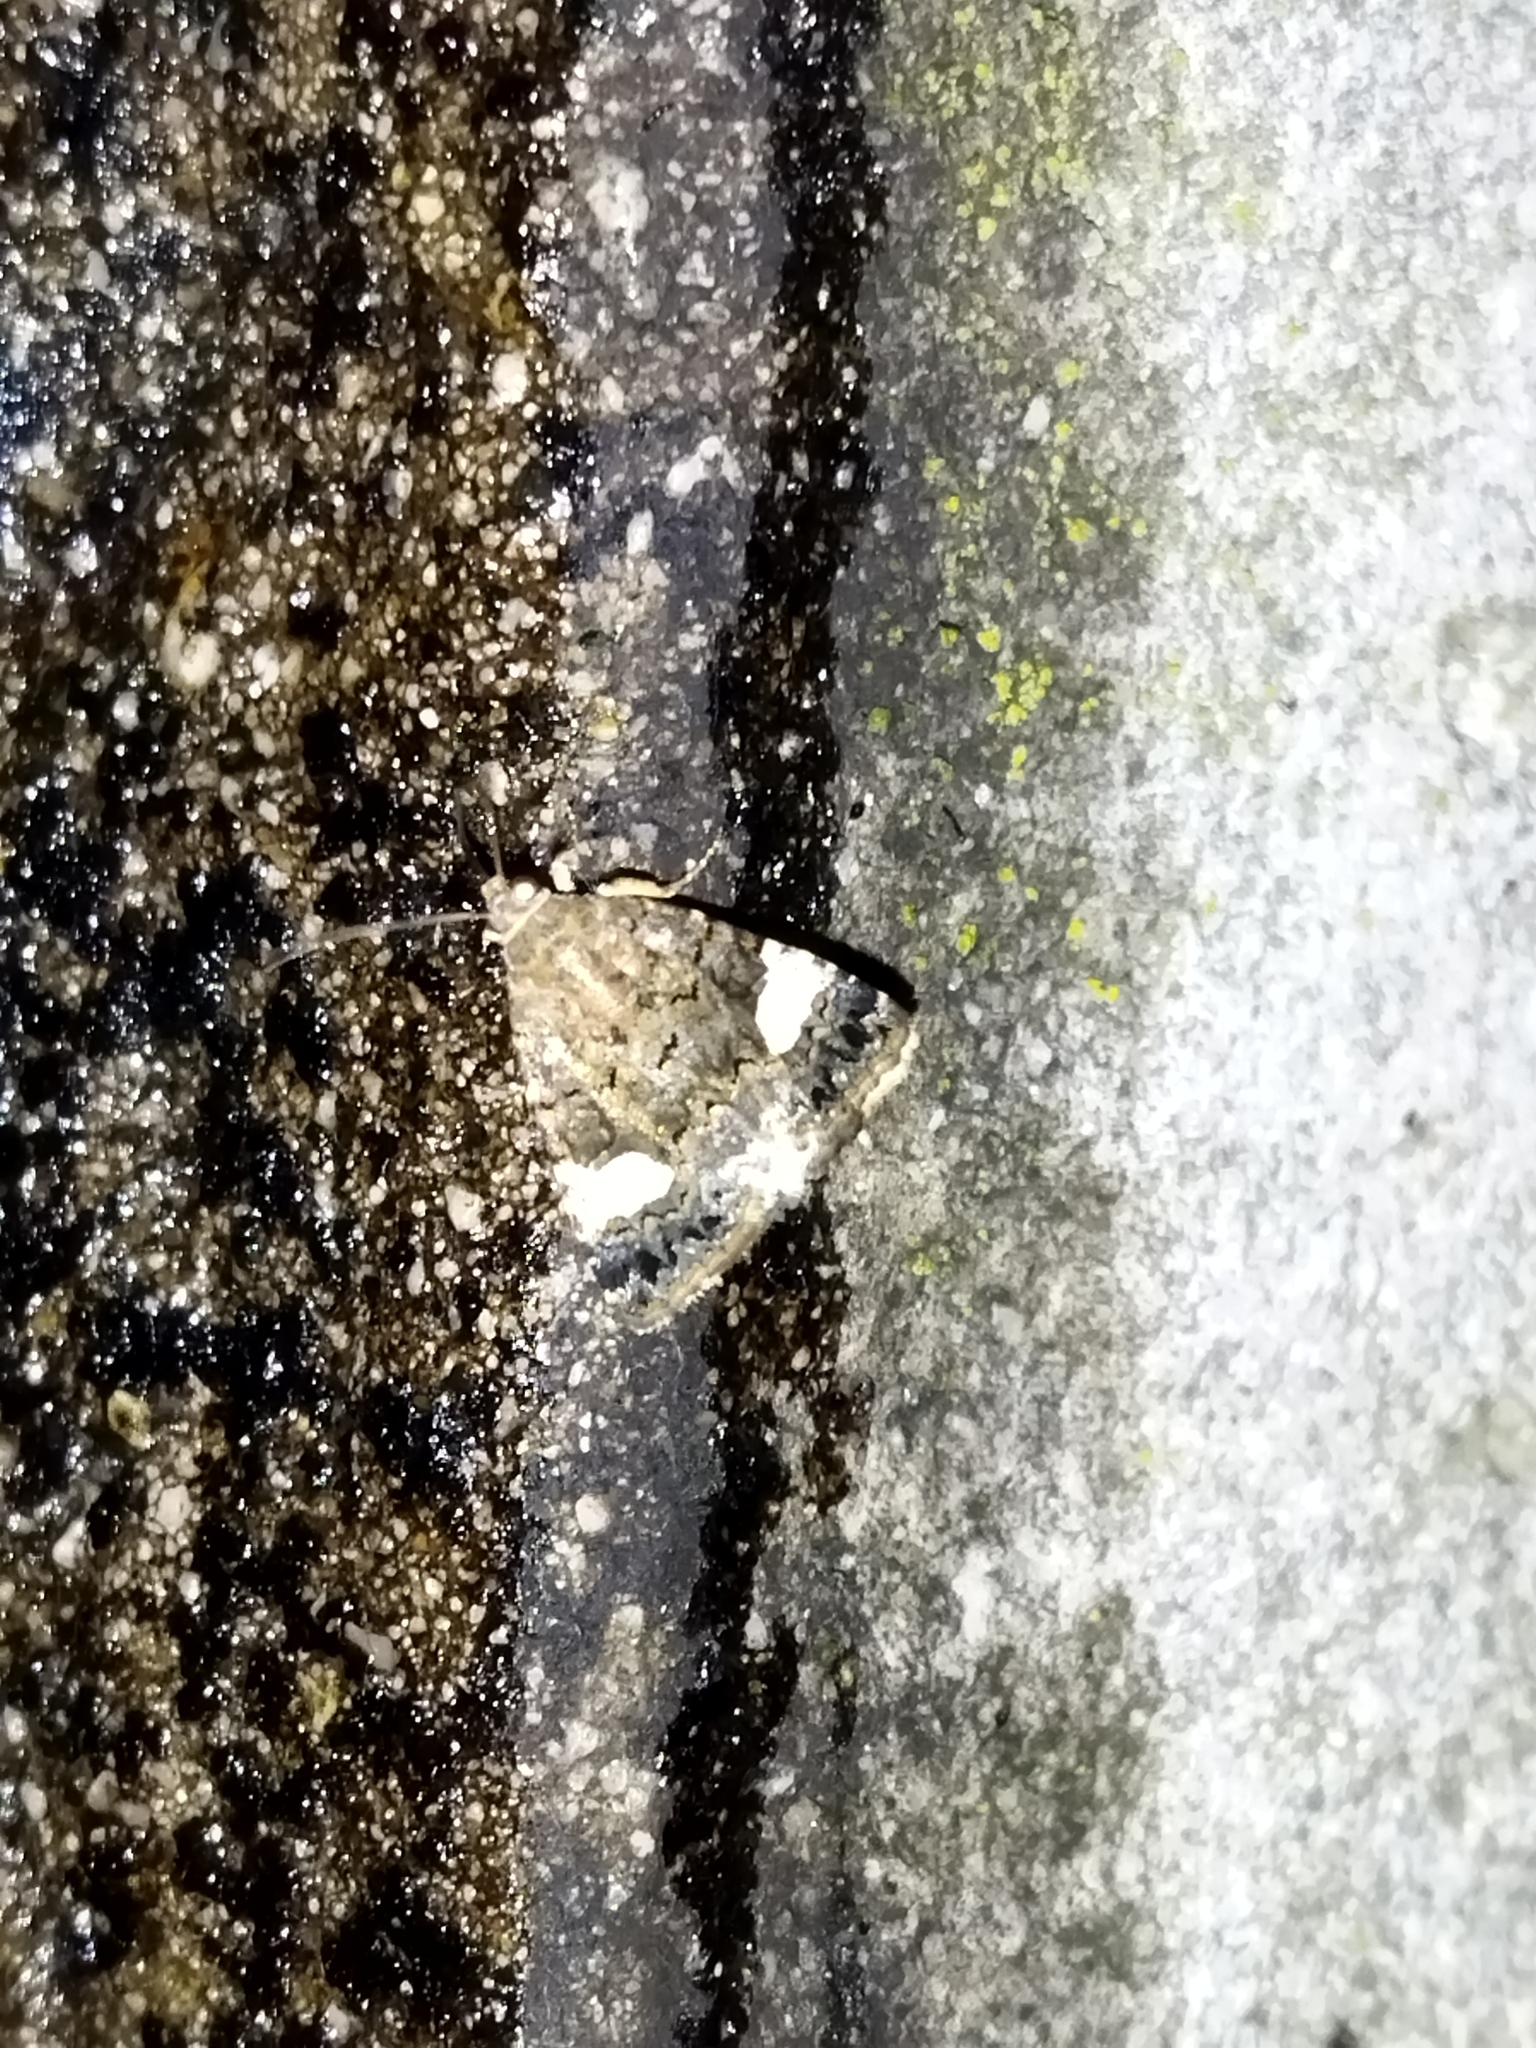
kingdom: Animalia
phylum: Arthropoda
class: Insecta
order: Lepidoptera
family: Erebidae
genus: Tyta
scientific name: Tyta luctuosa
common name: Four-spotted
